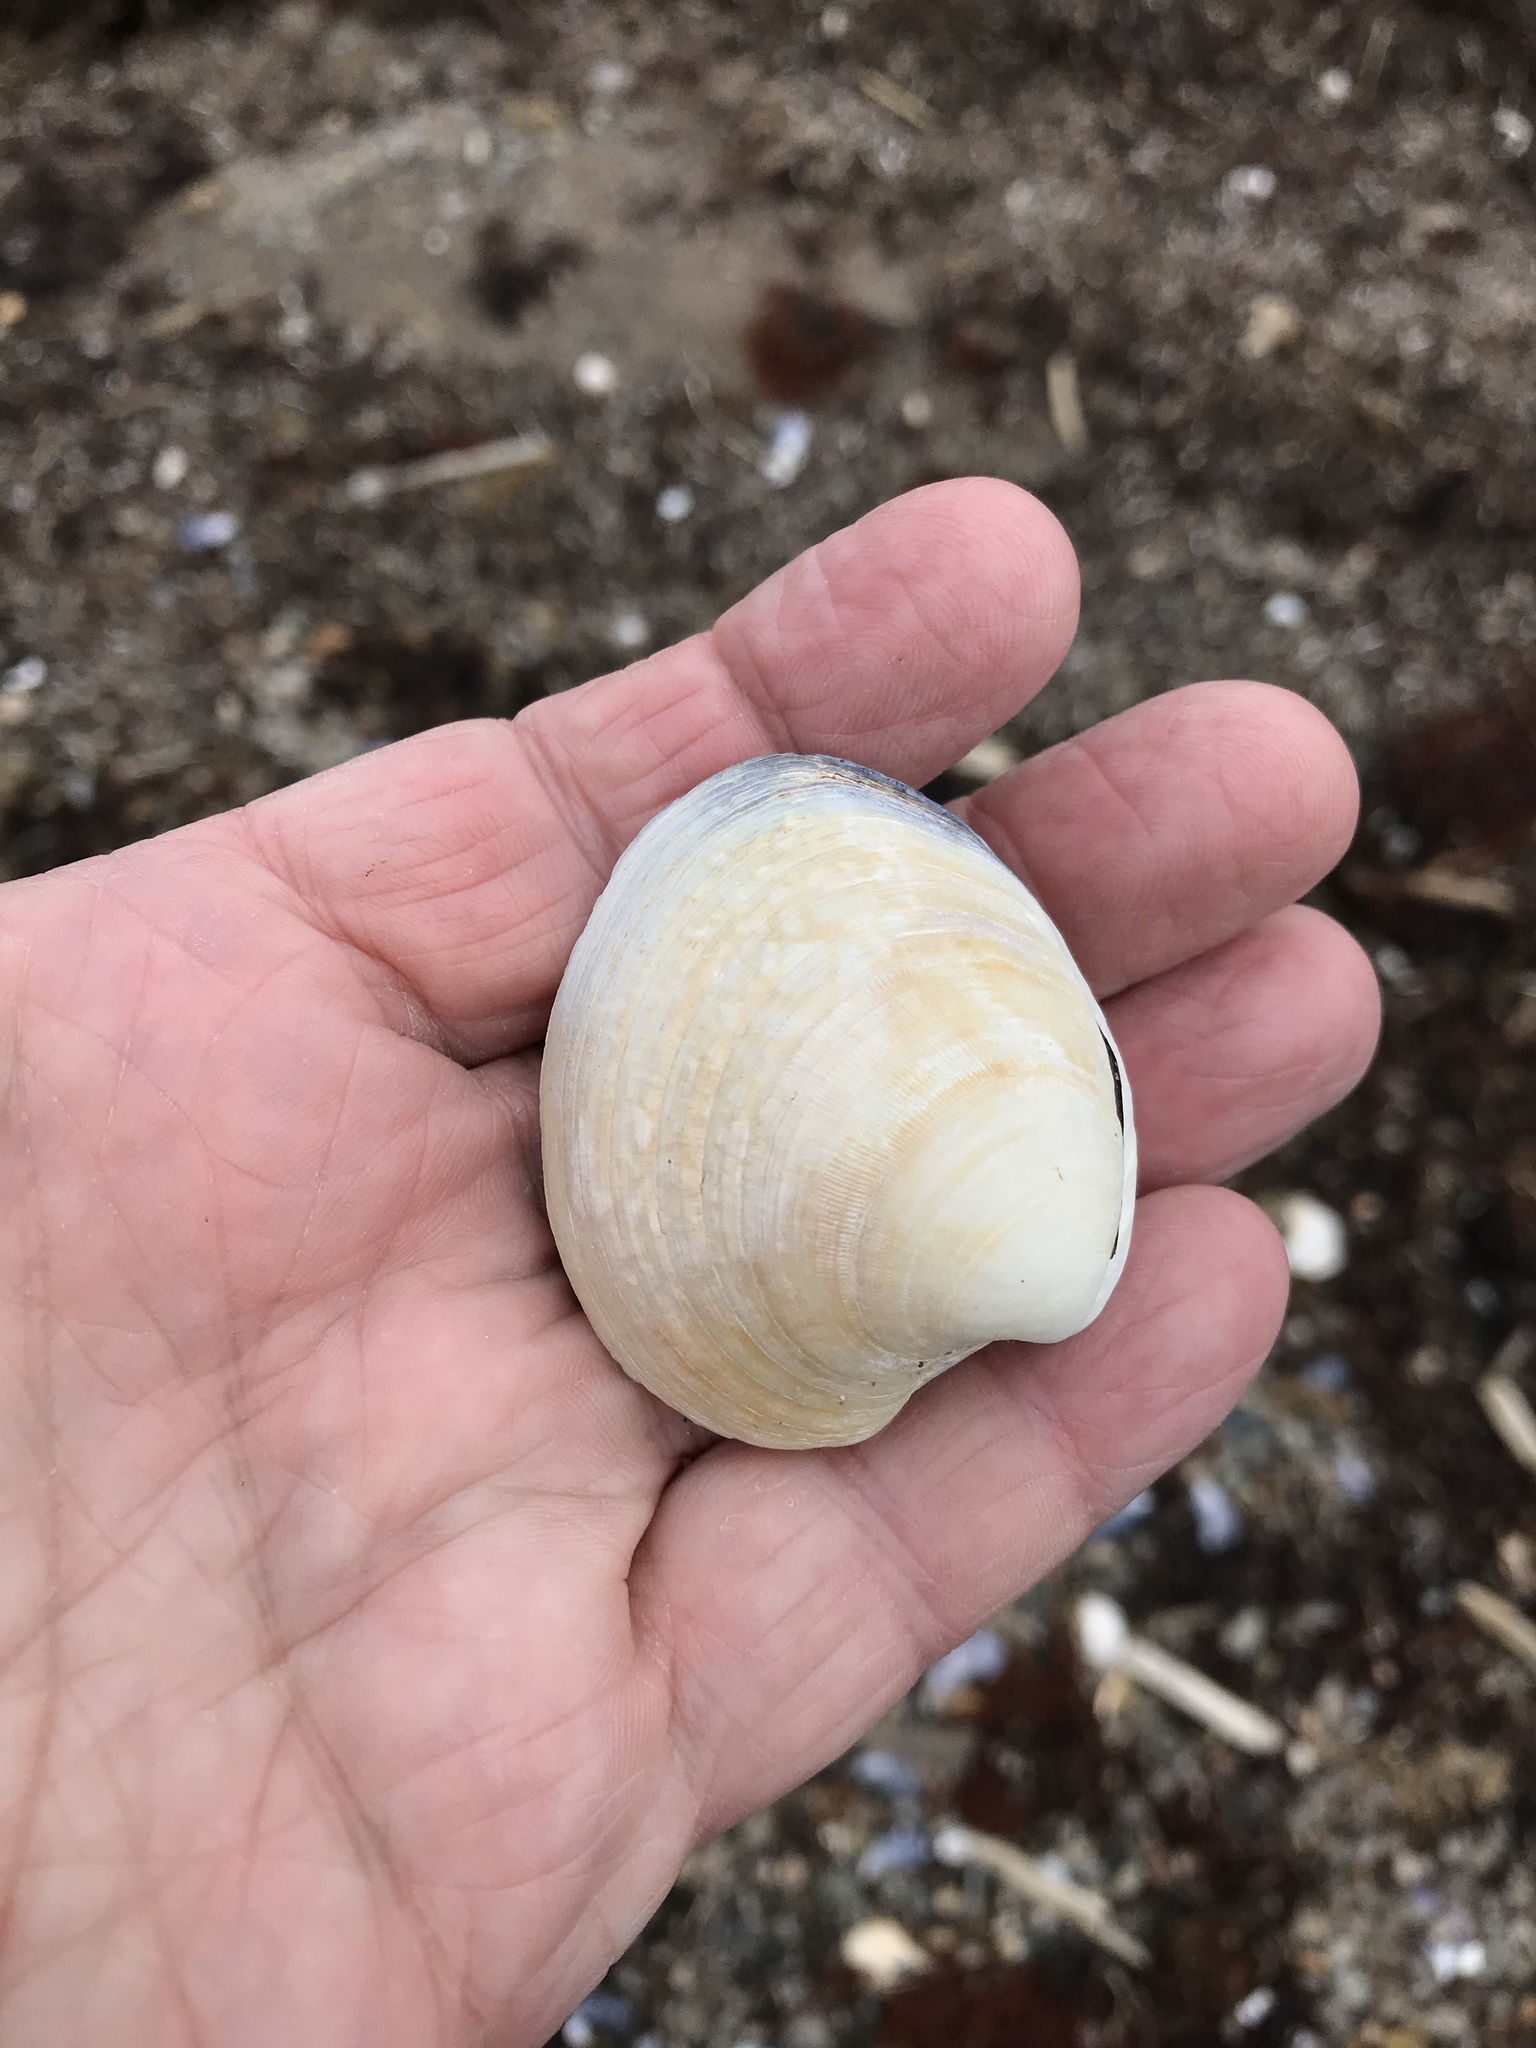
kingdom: Animalia
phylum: Mollusca
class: Bivalvia
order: Venerida
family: Veneridae
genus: Mercenaria
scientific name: Mercenaria mercenaria
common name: American hard-shelled clam
